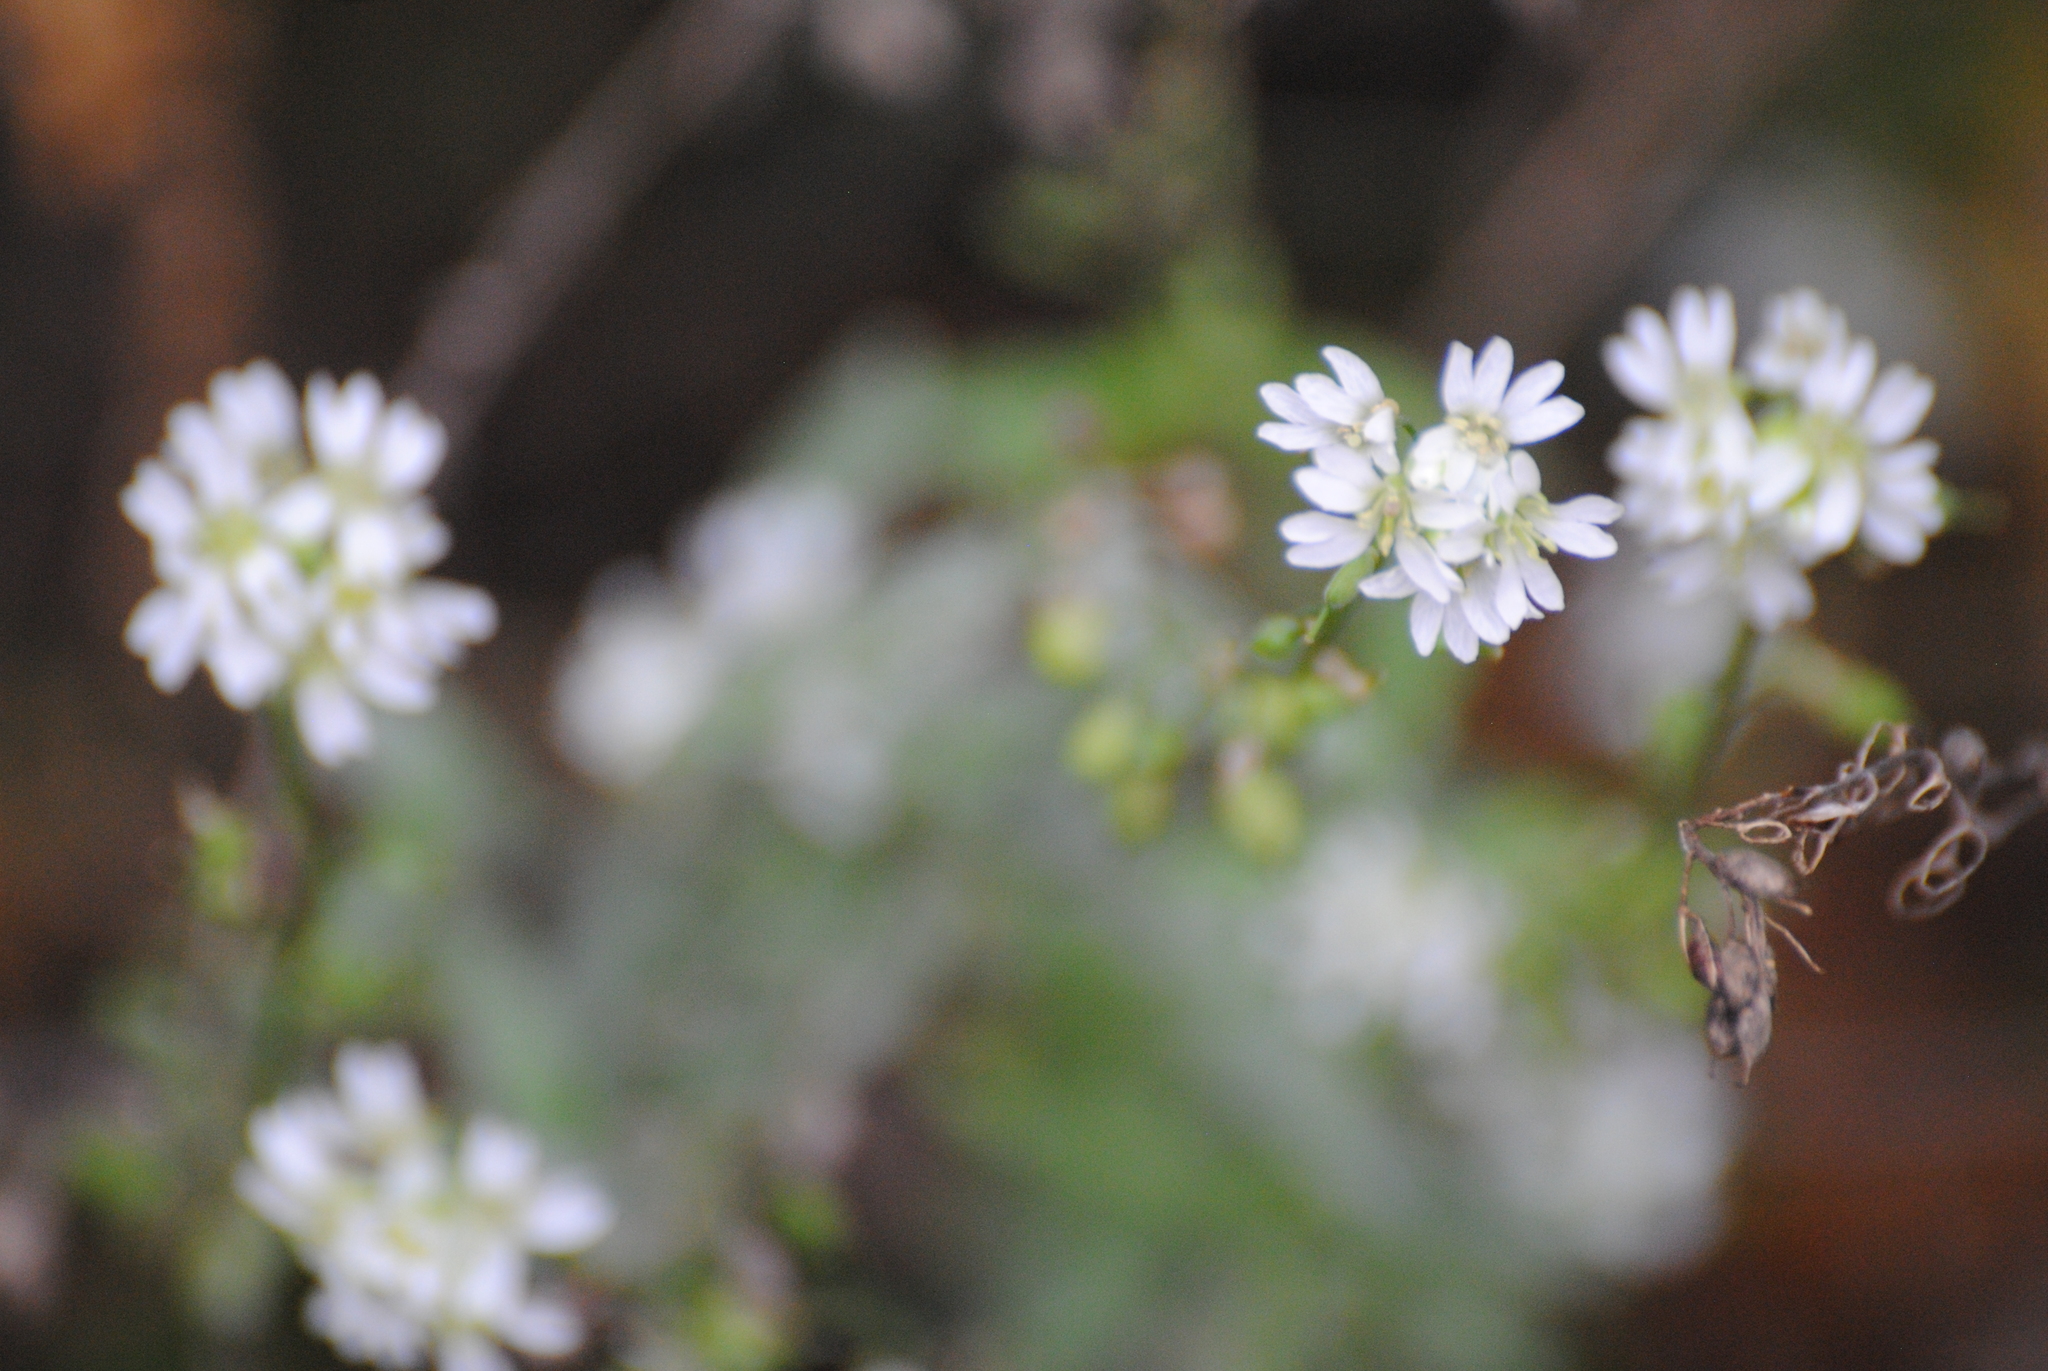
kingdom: Plantae
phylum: Tracheophyta
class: Magnoliopsida
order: Brassicales
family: Brassicaceae
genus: Berteroa
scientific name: Berteroa incana
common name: Hoary alison
